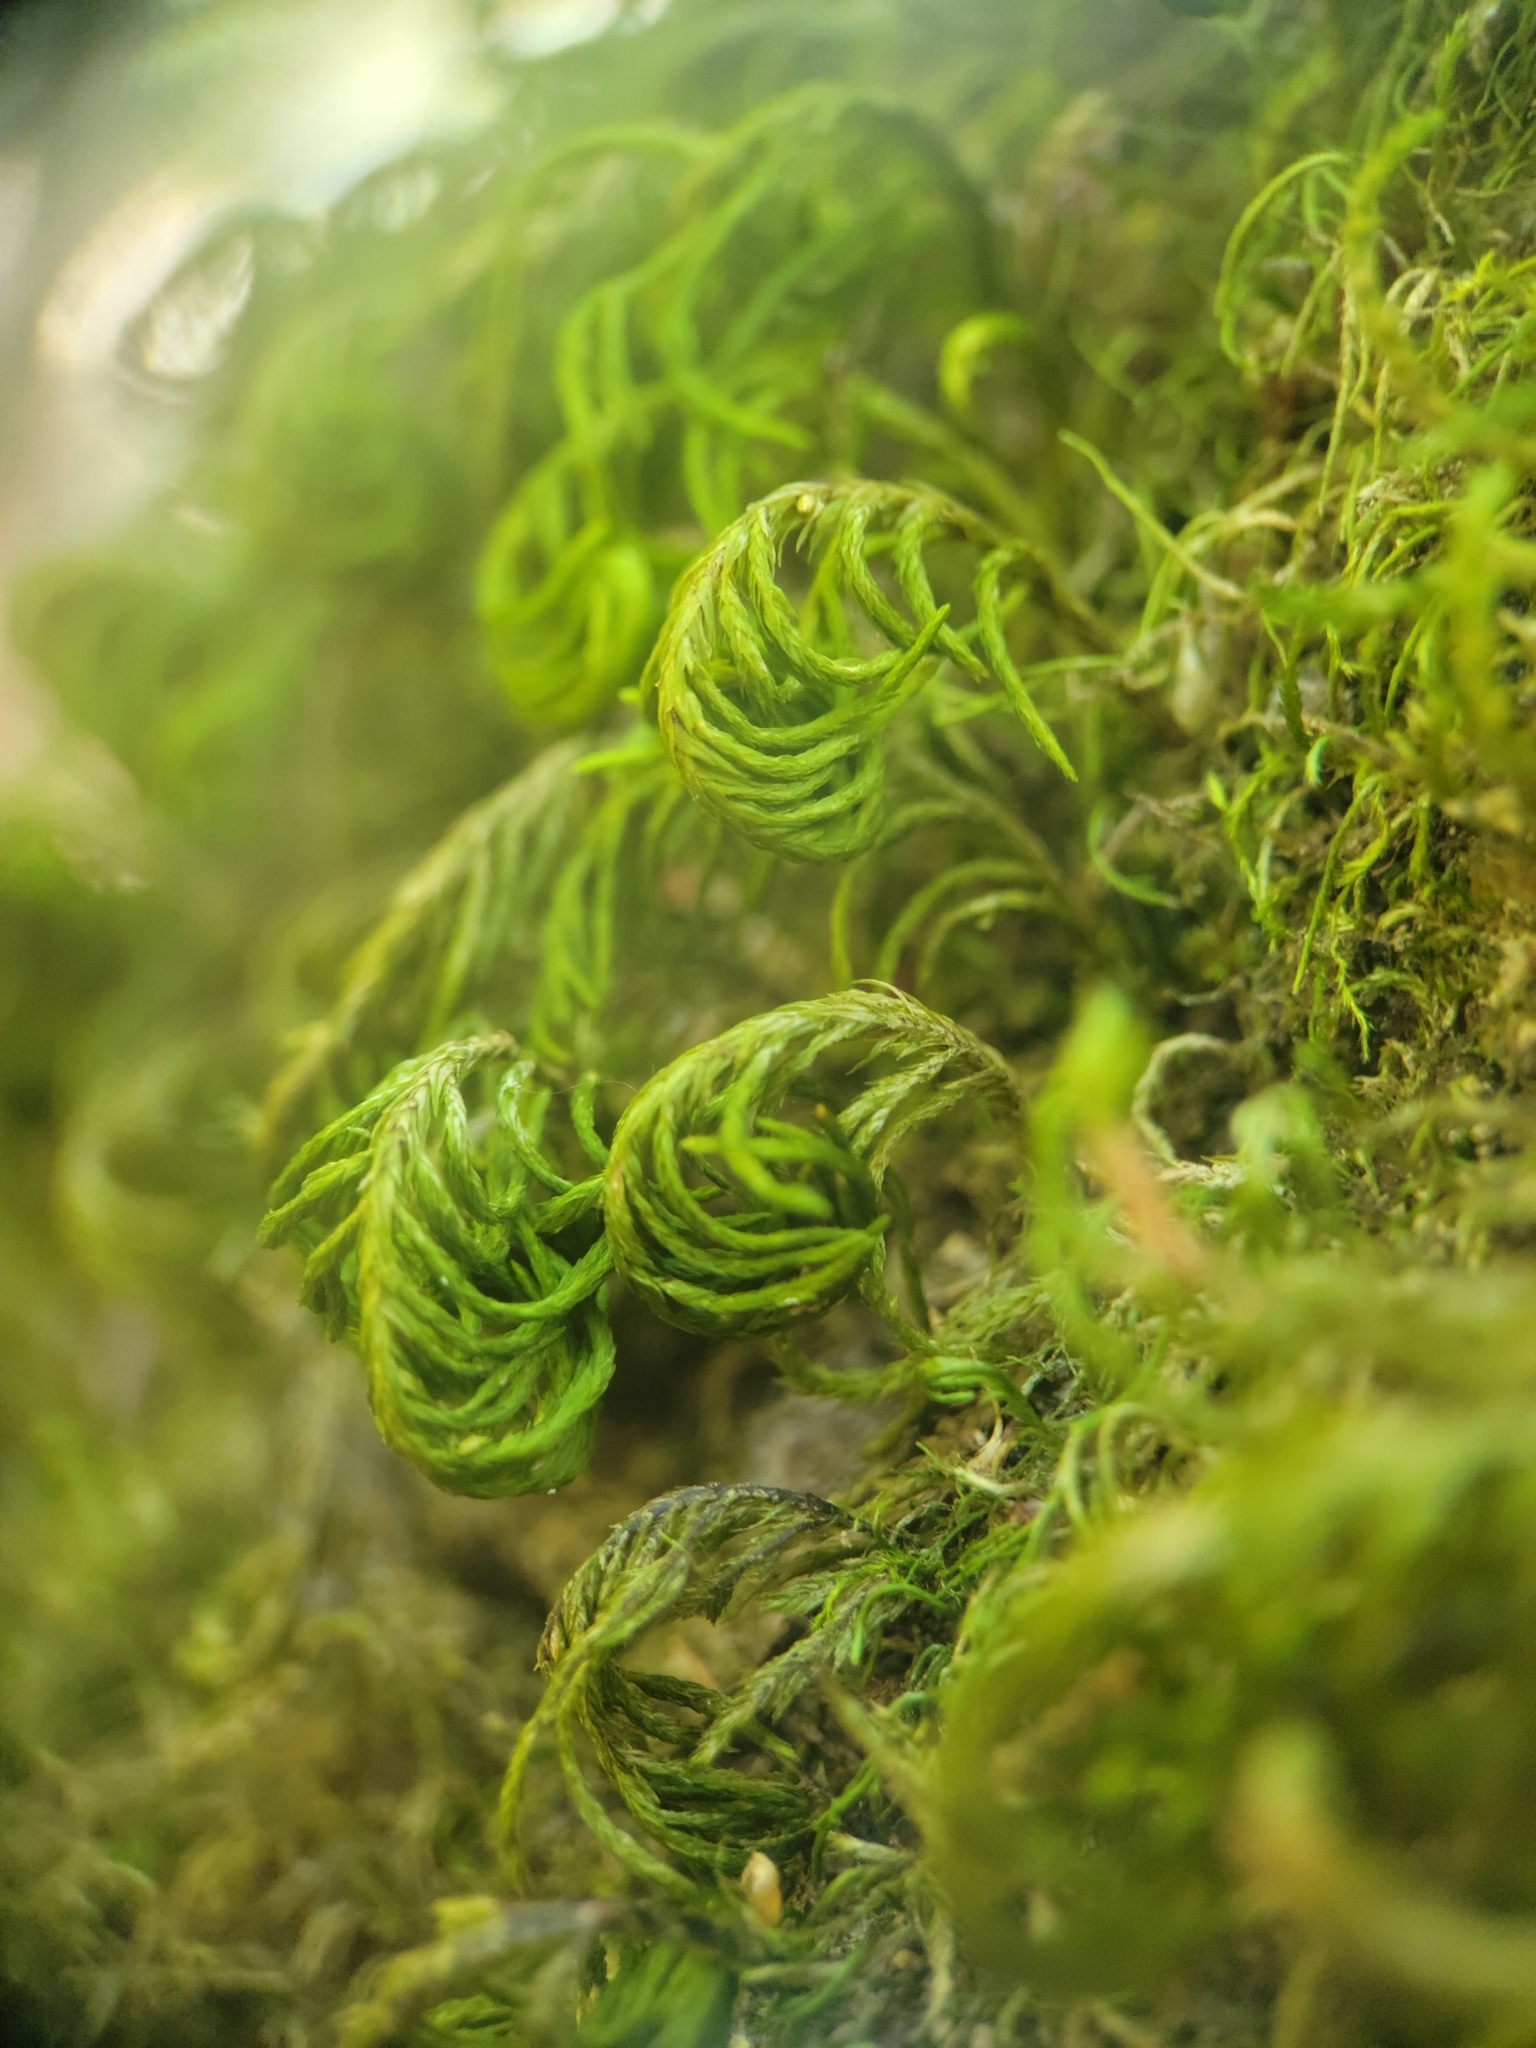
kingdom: Plantae
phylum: Bryophyta
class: Bryopsida
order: Hypnales
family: Cryphaeaceae
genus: Dendroalsia
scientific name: Dendroalsia abietina
